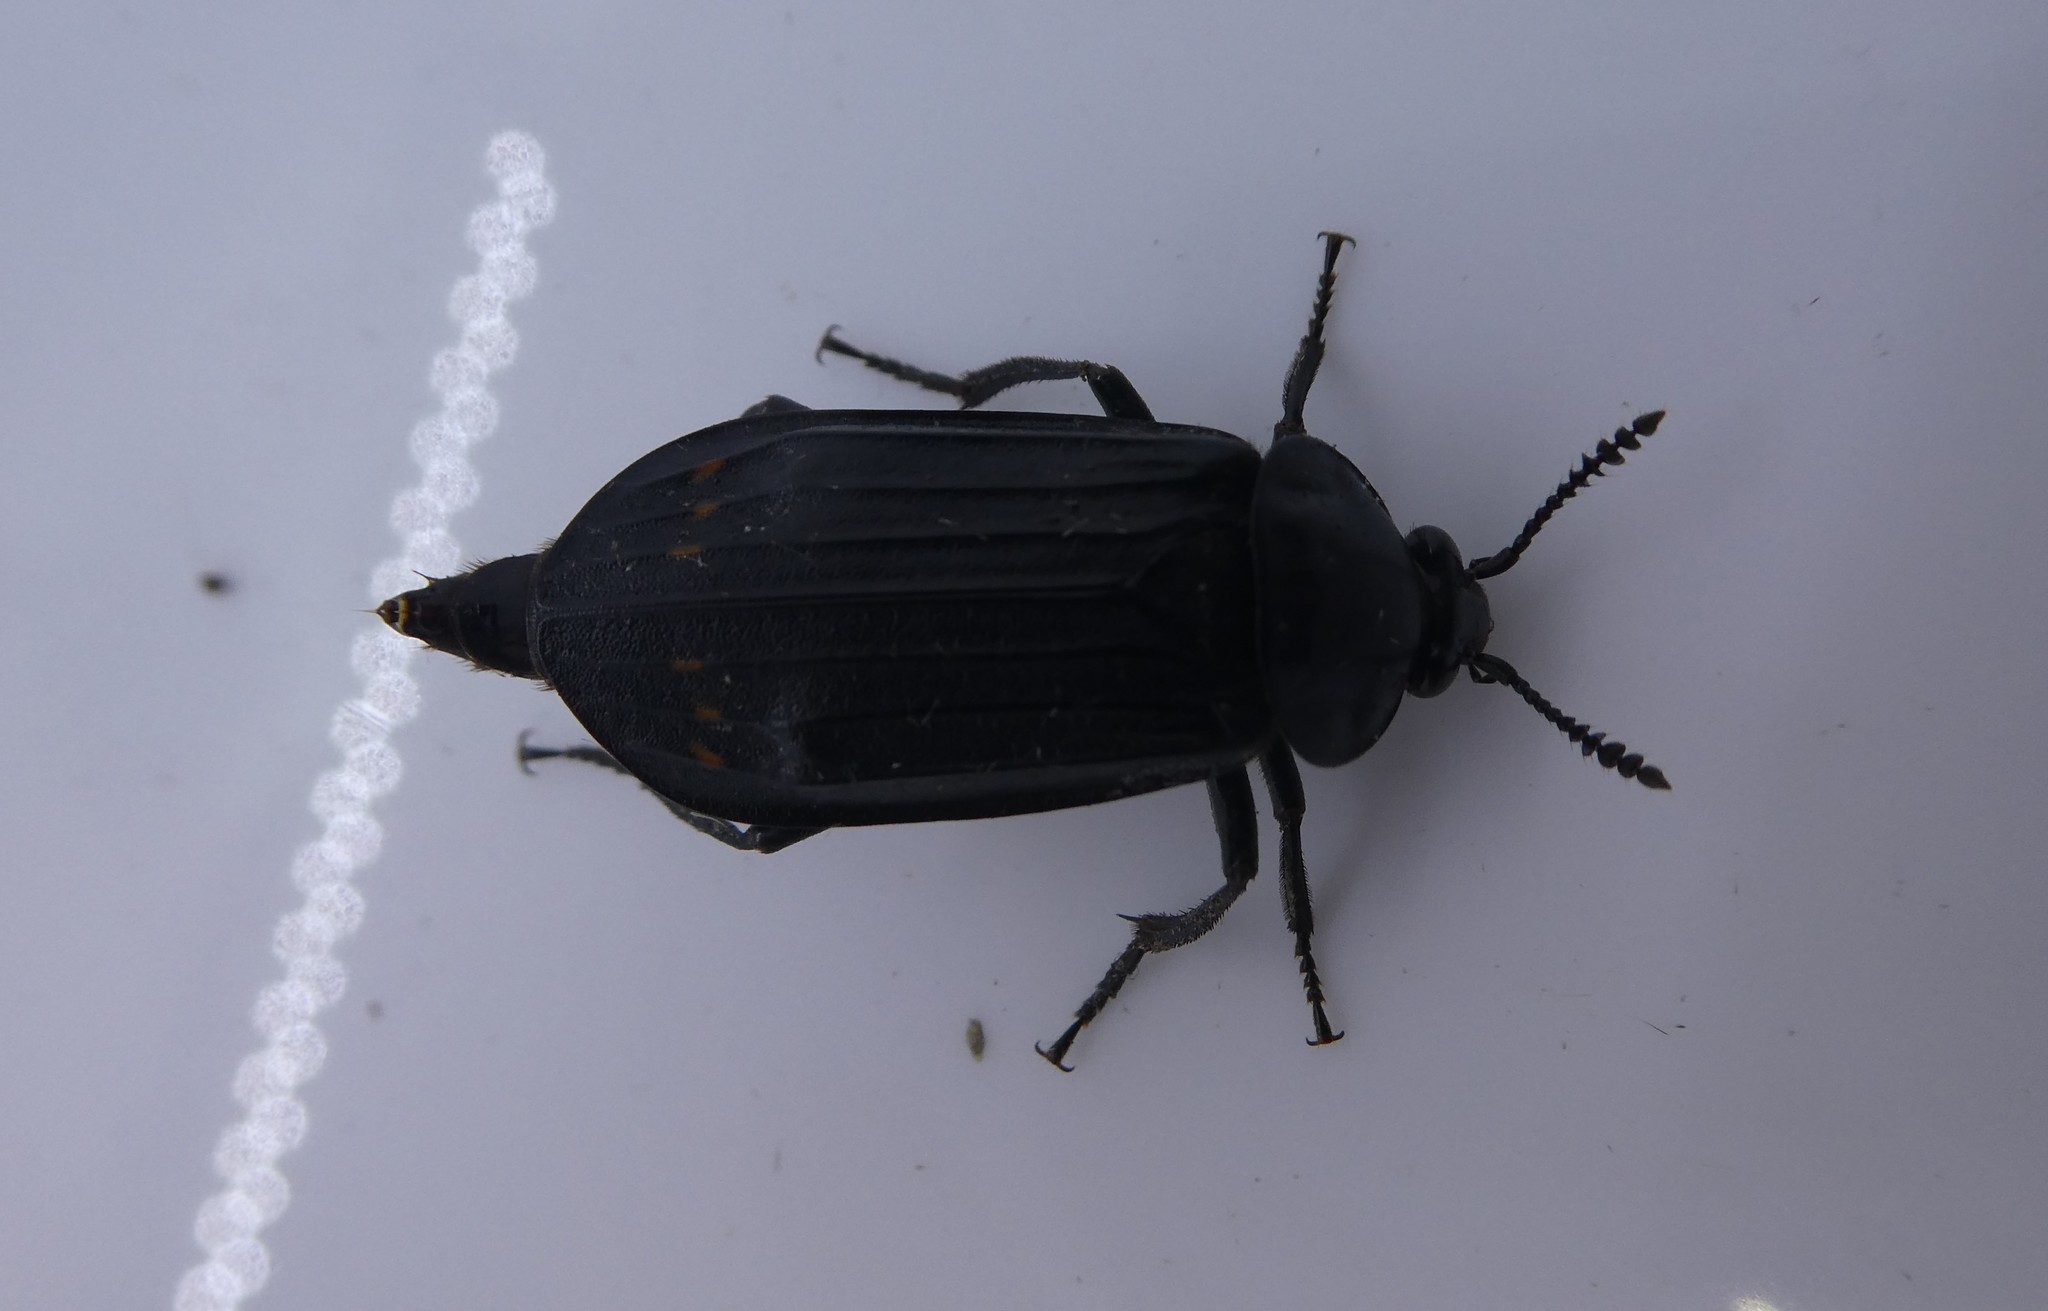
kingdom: Animalia
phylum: Arthropoda
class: Insecta
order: Coleoptera
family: Staphylinidae
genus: Necrodes
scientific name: Necrodes surinamensis
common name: Red-lined carrion beetle
